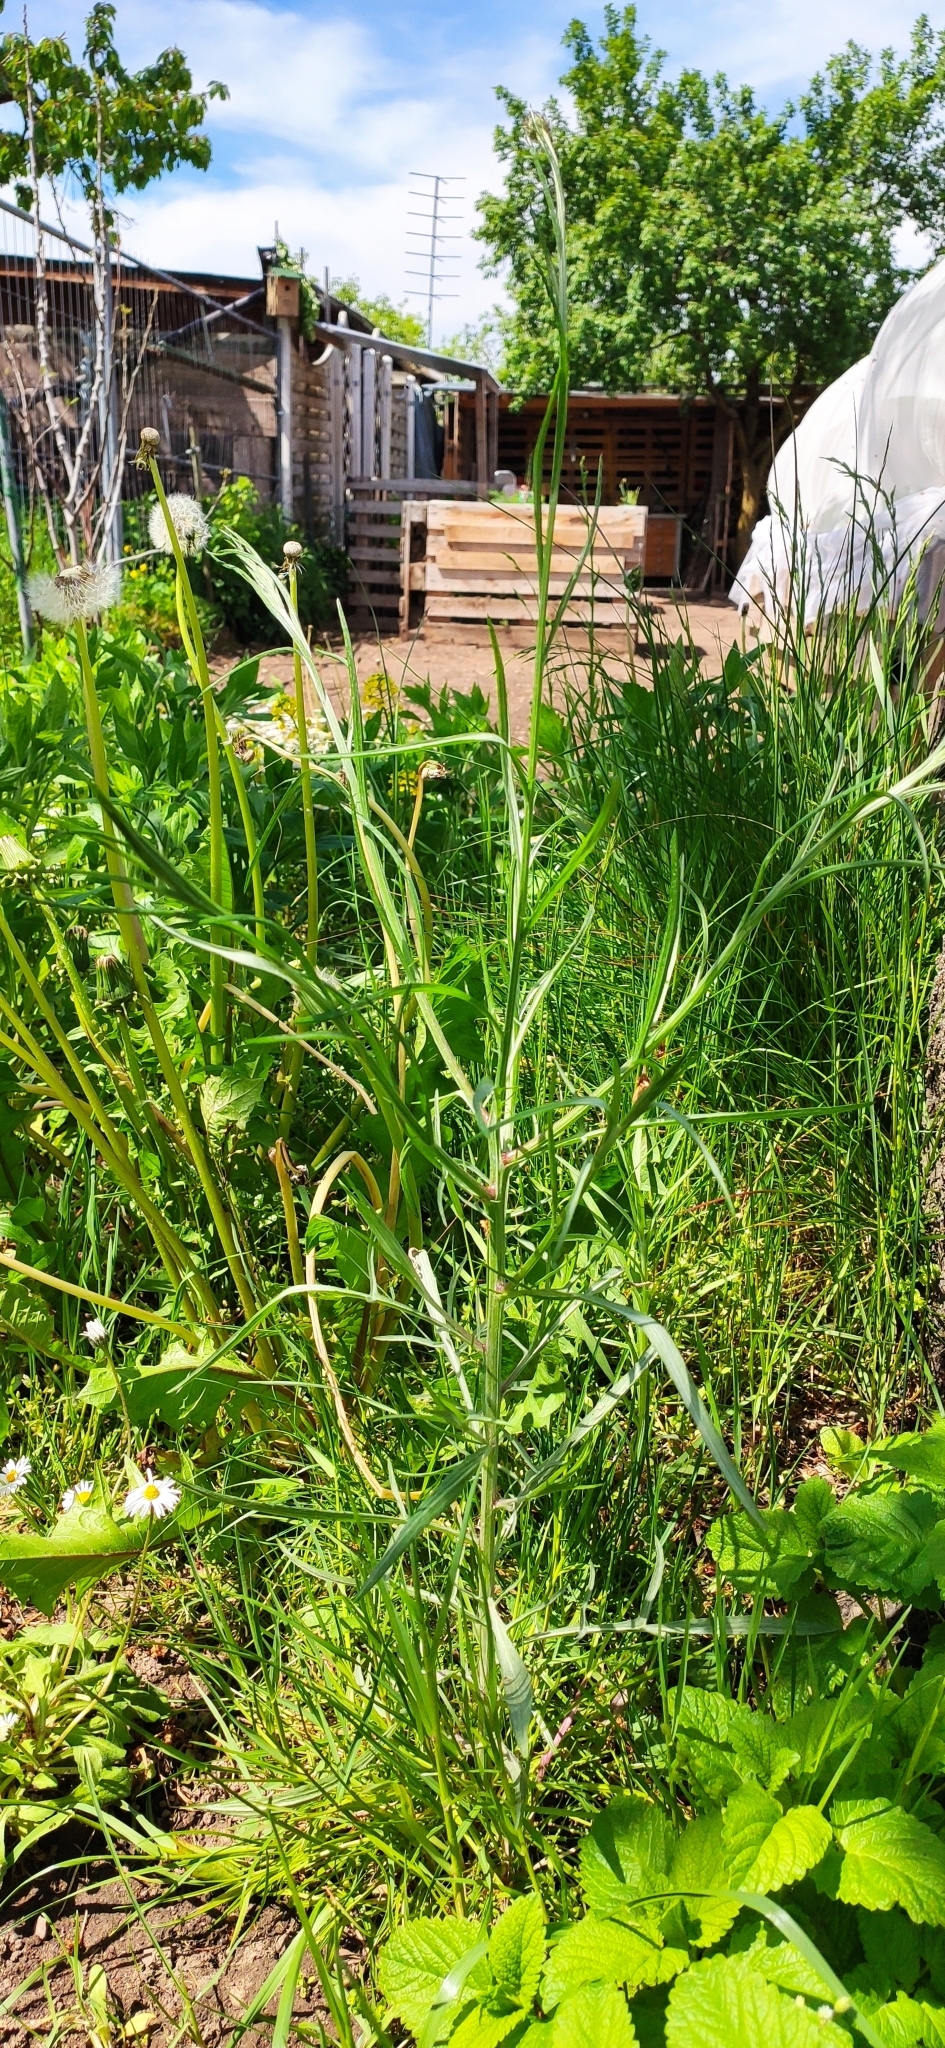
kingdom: Plantae
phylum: Tracheophyta
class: Magnoliopsida
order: Asterales
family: Asteraceae
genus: Centaurea
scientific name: Centaurea cyanus
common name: Cornflower
